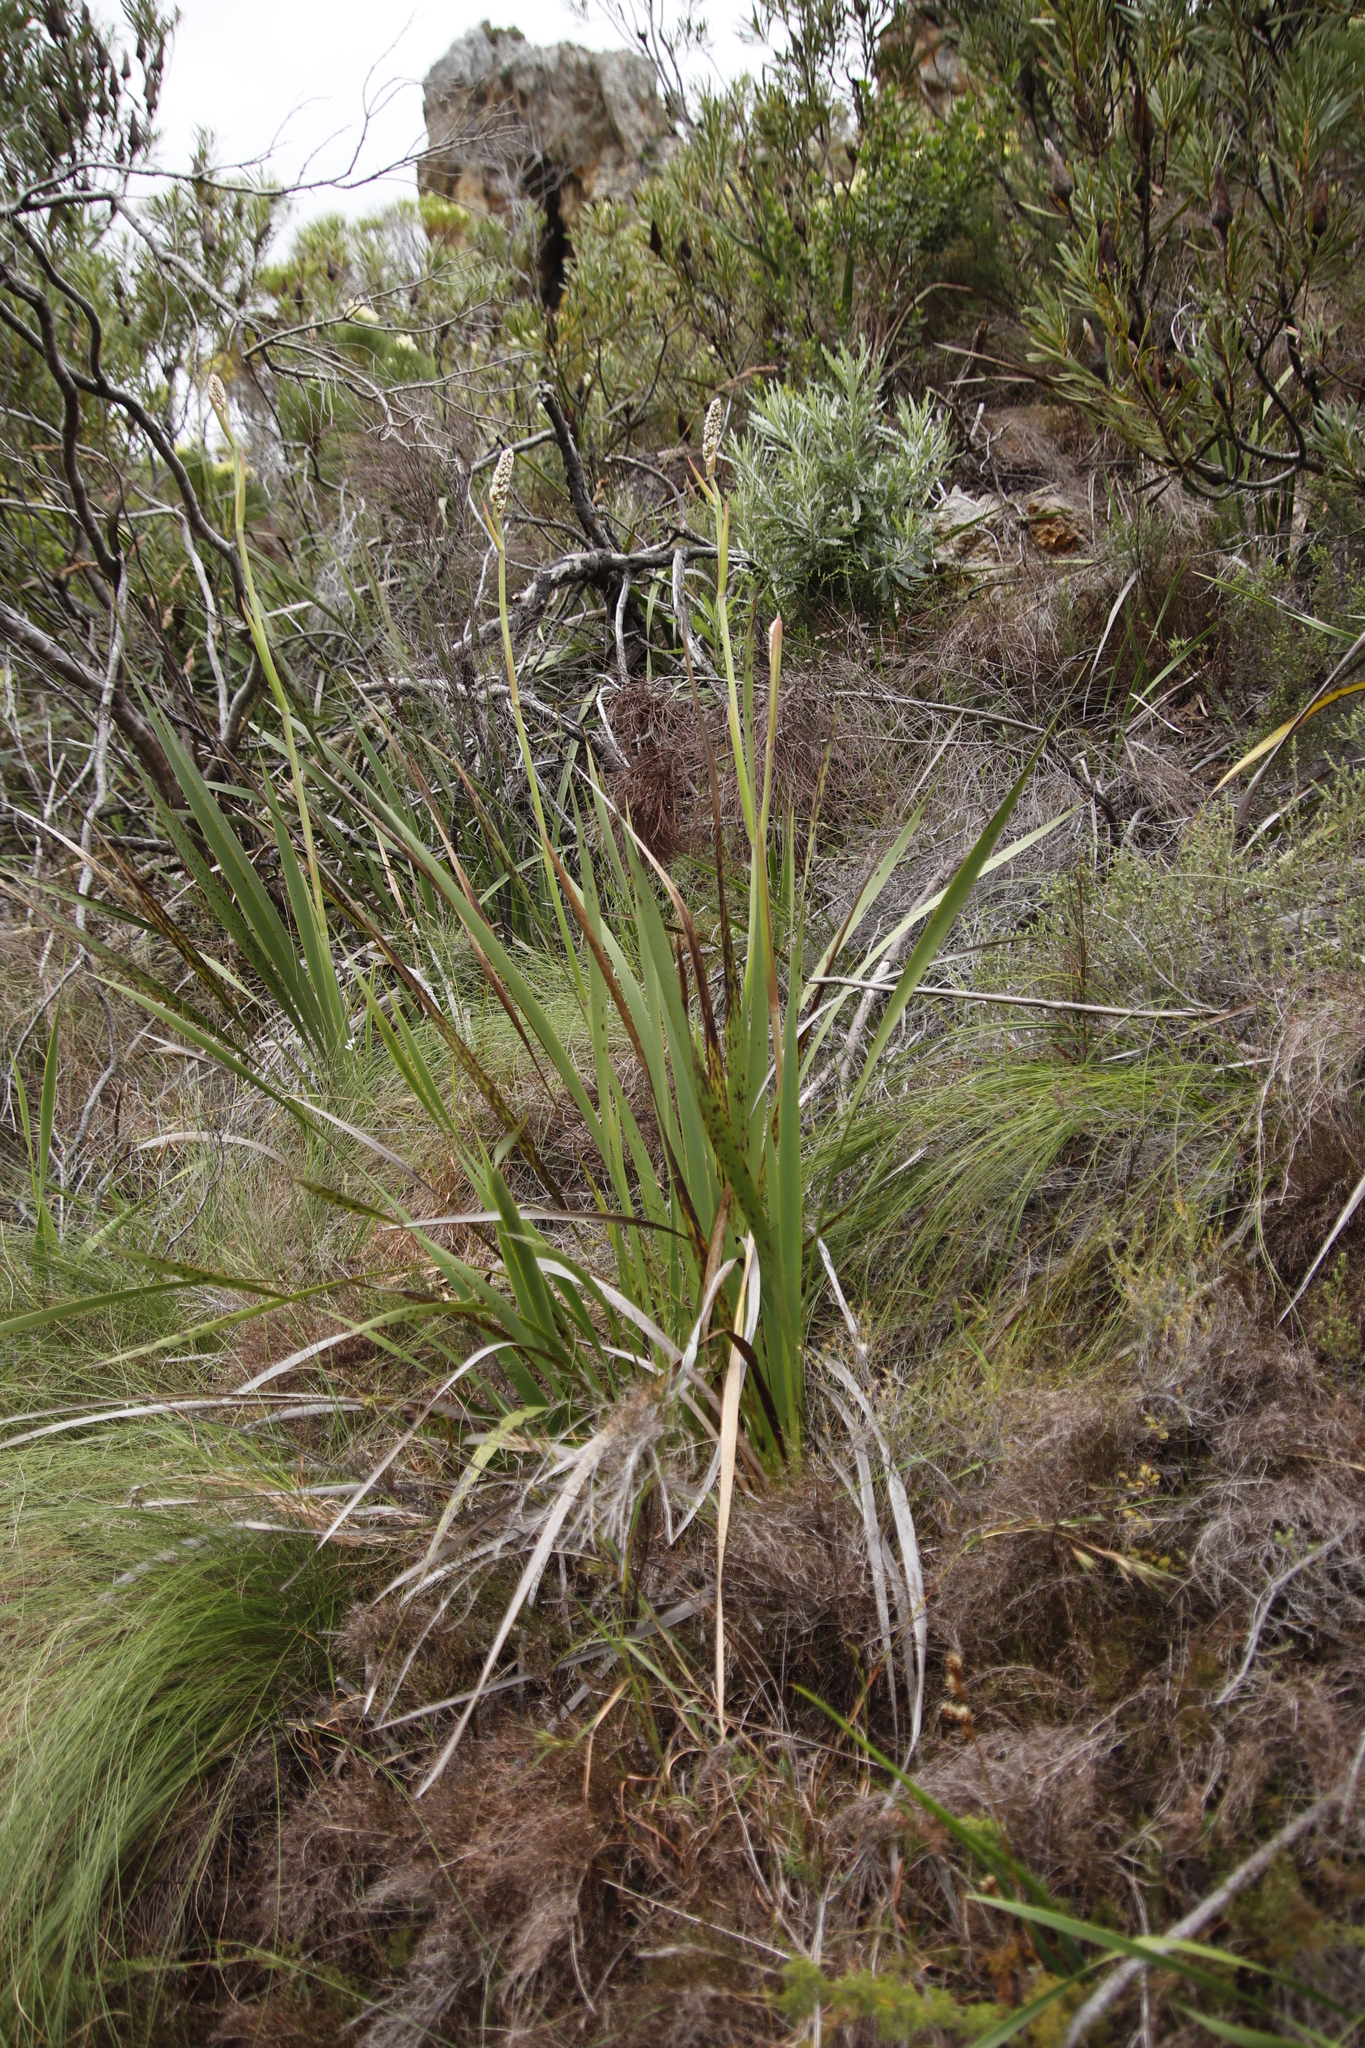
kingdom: Plantae
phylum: Tracheophyta
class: Liliopsida
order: Asparagales
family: Iridaceae
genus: Aristea
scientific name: Aristea capitata
